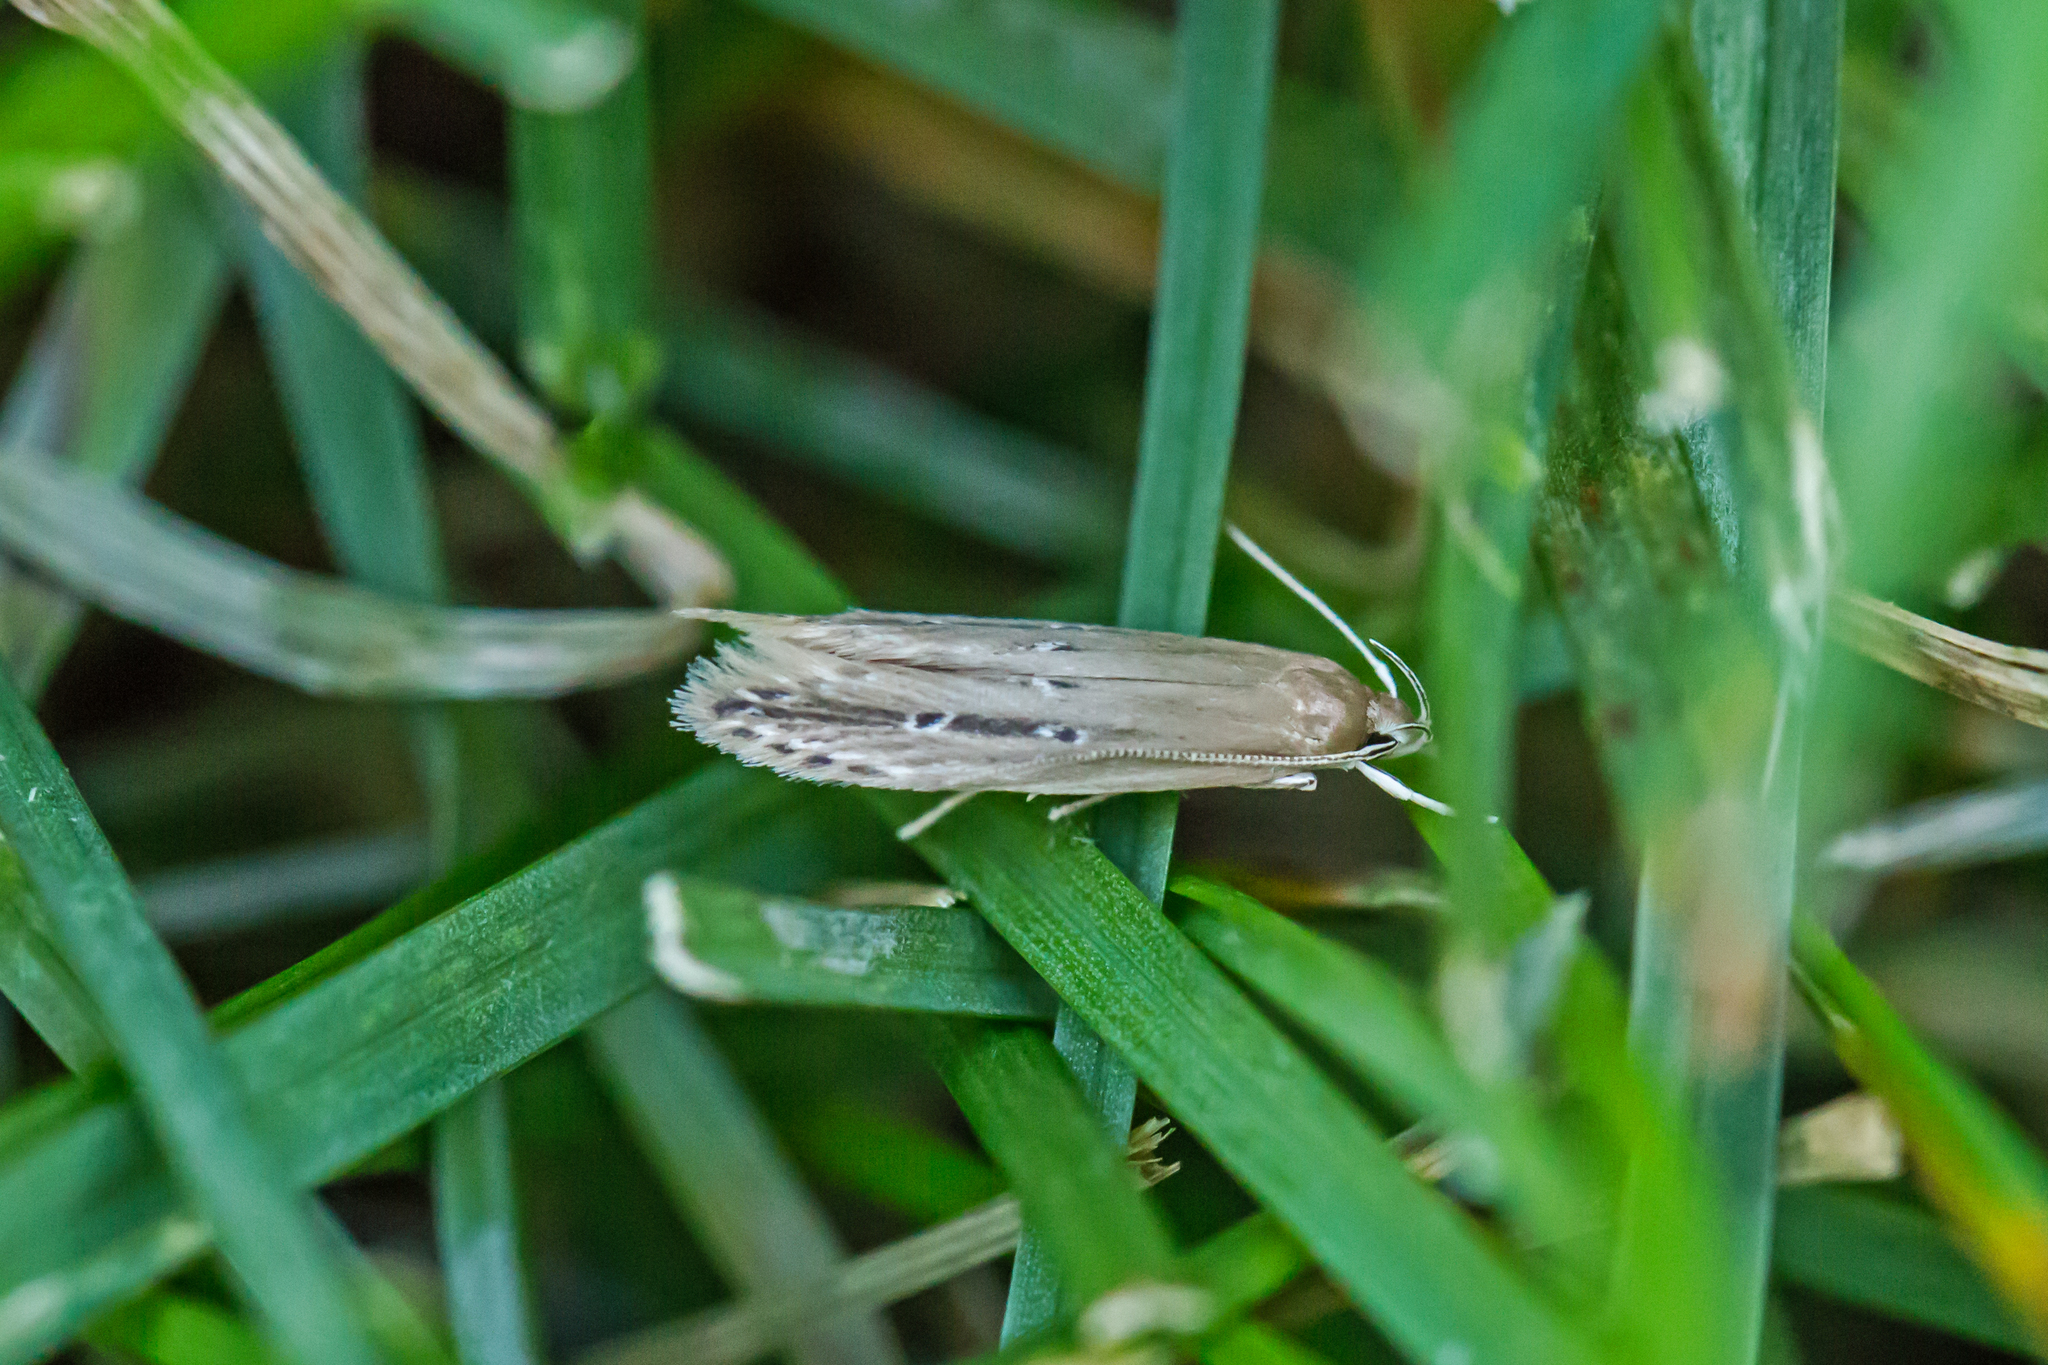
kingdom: Animalia
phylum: Arthropoda
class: Insecta
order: Lepidoptera
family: Cosmopterigidae
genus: Limnaecia
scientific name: Limnaecia phragmitella
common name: Bulrush cosmet
